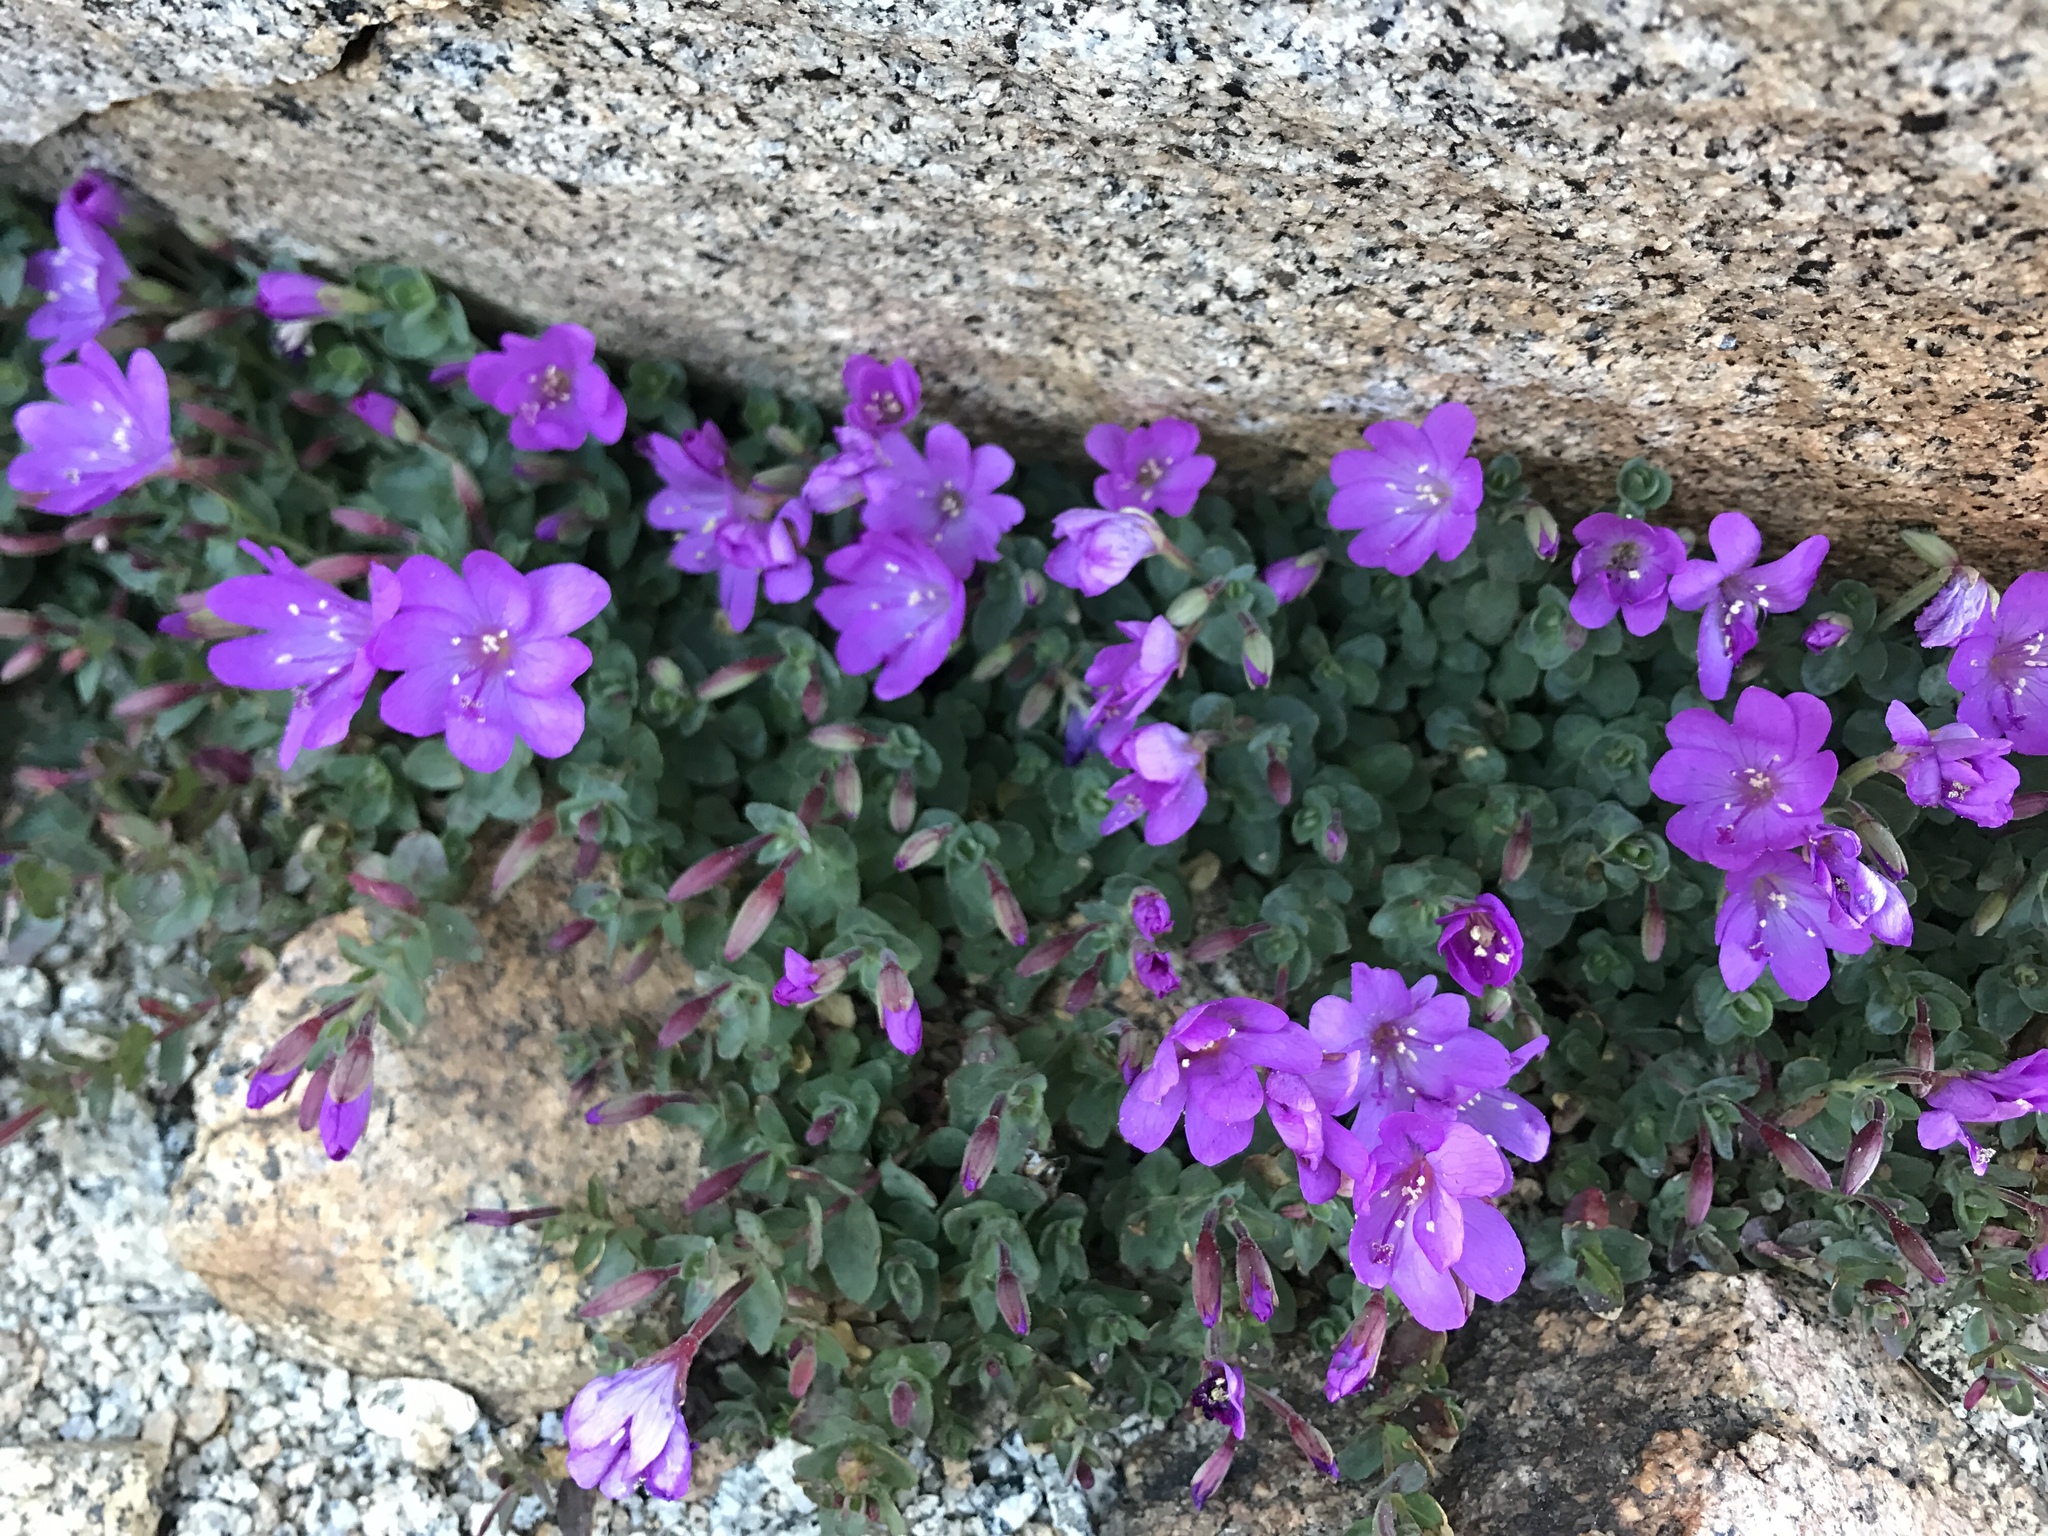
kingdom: Plantae
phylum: Tracheophyta
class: Magnoliopsida
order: Myrtales
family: Onagraceae
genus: Epilobium
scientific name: Epilobium obcordatum
